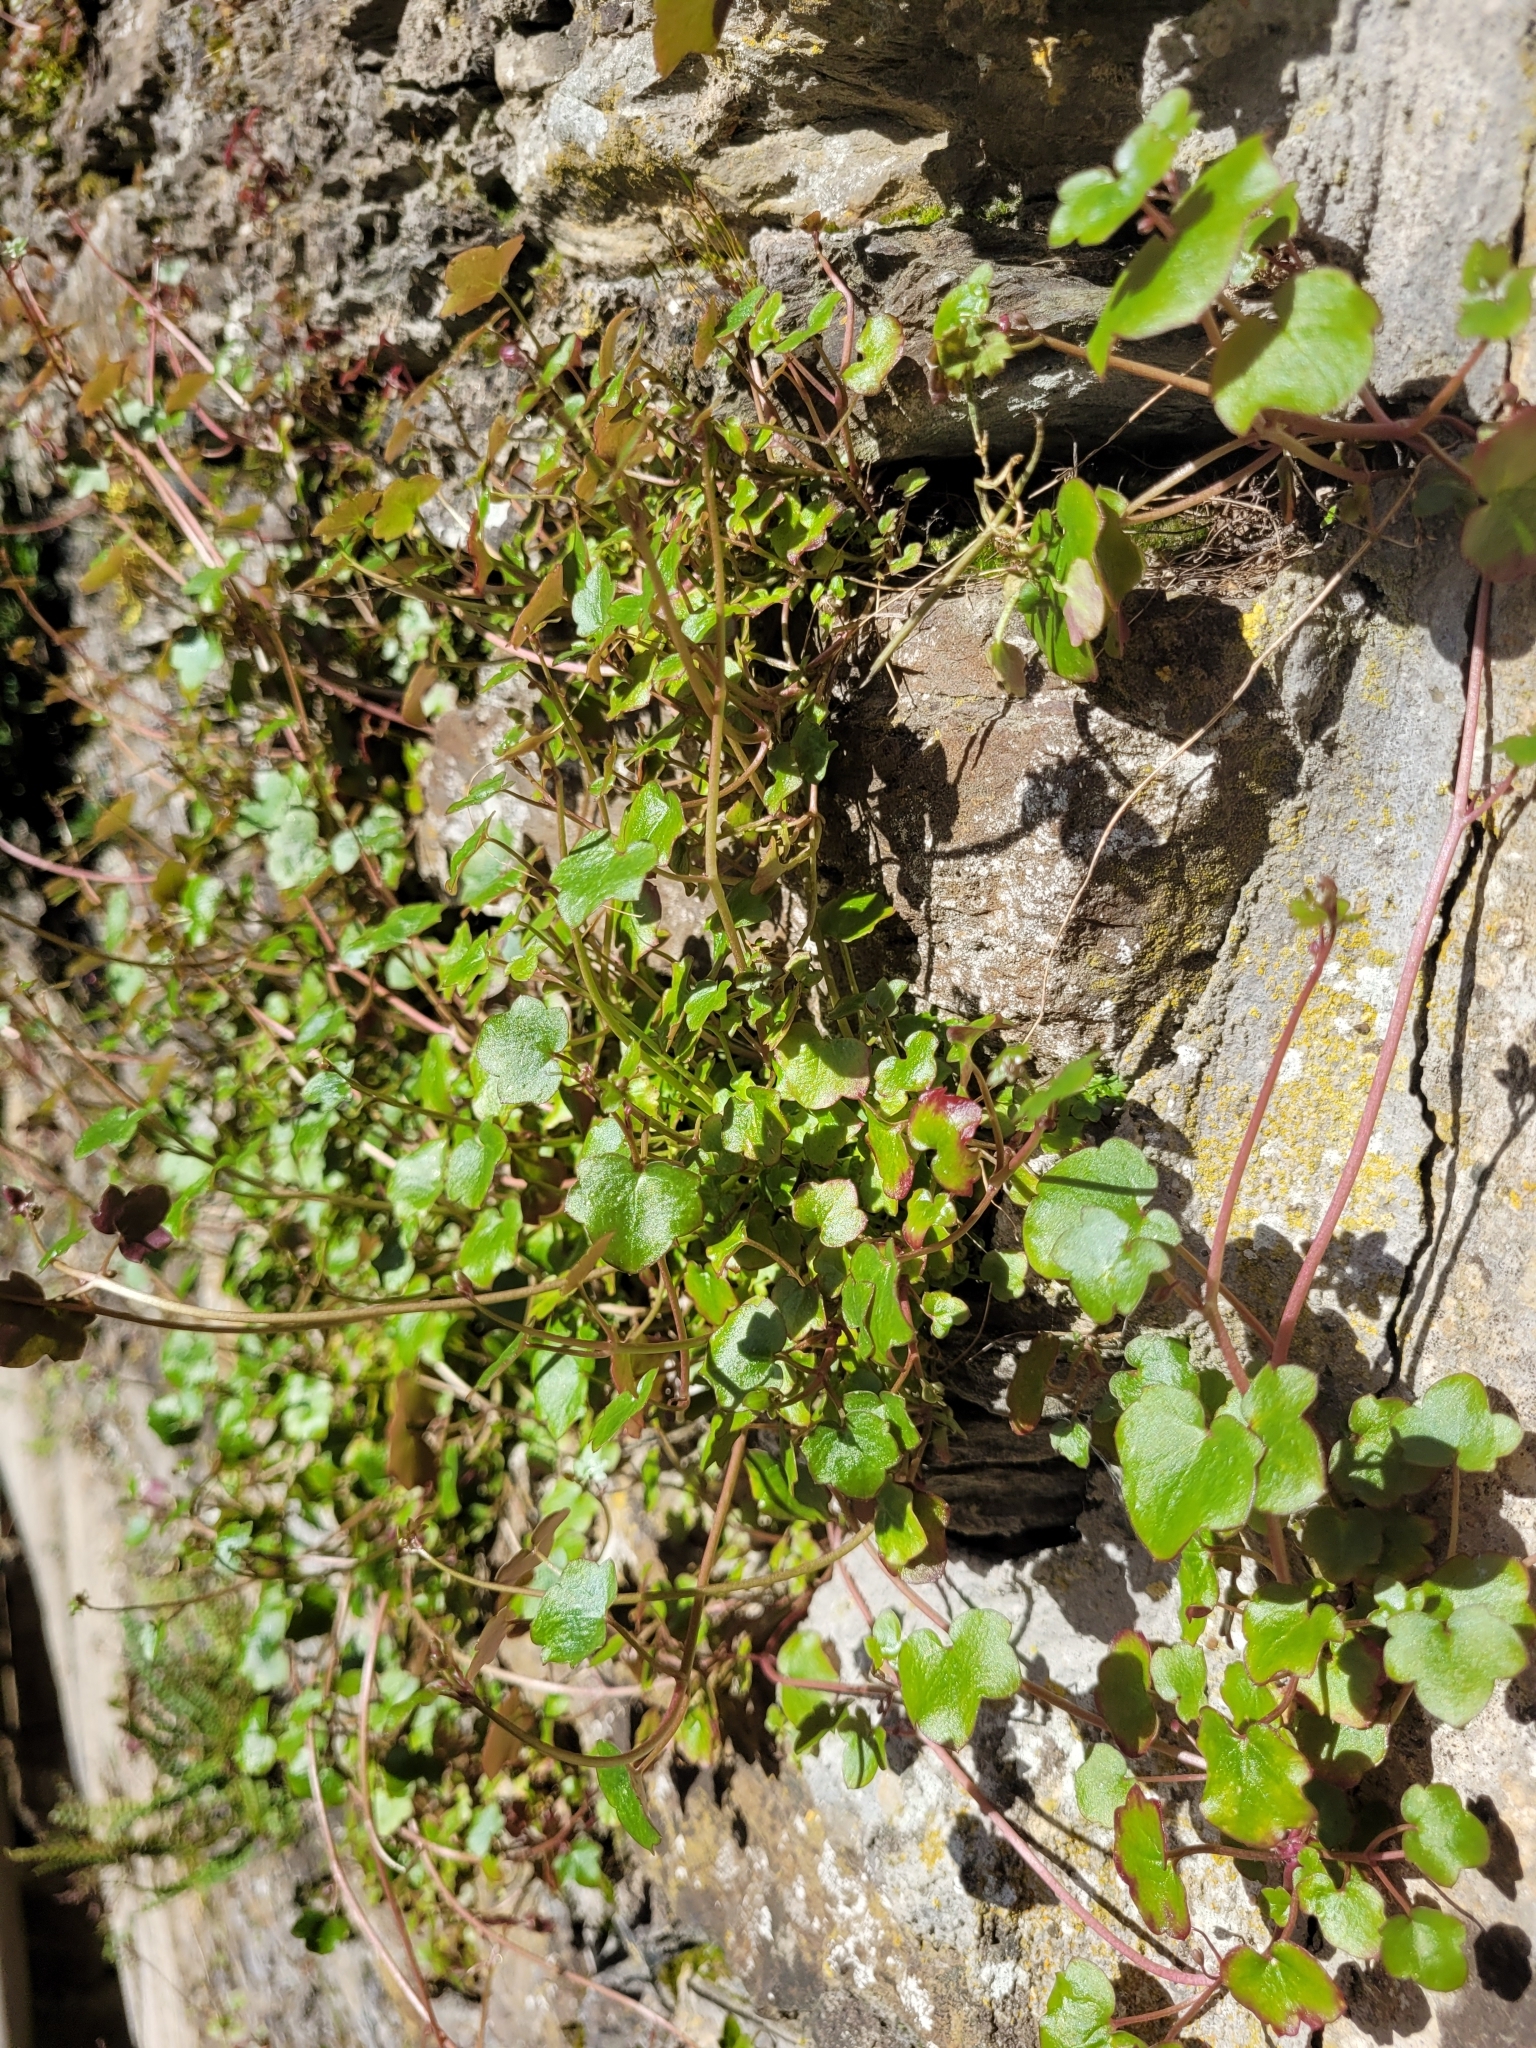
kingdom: Plantae
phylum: Tracheophyta
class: Magnoliopsida
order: Lamiales
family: Plantaginaceae
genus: Cymbalaria
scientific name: Cymbalaria muralis
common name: Ivy-leaved toadflax
